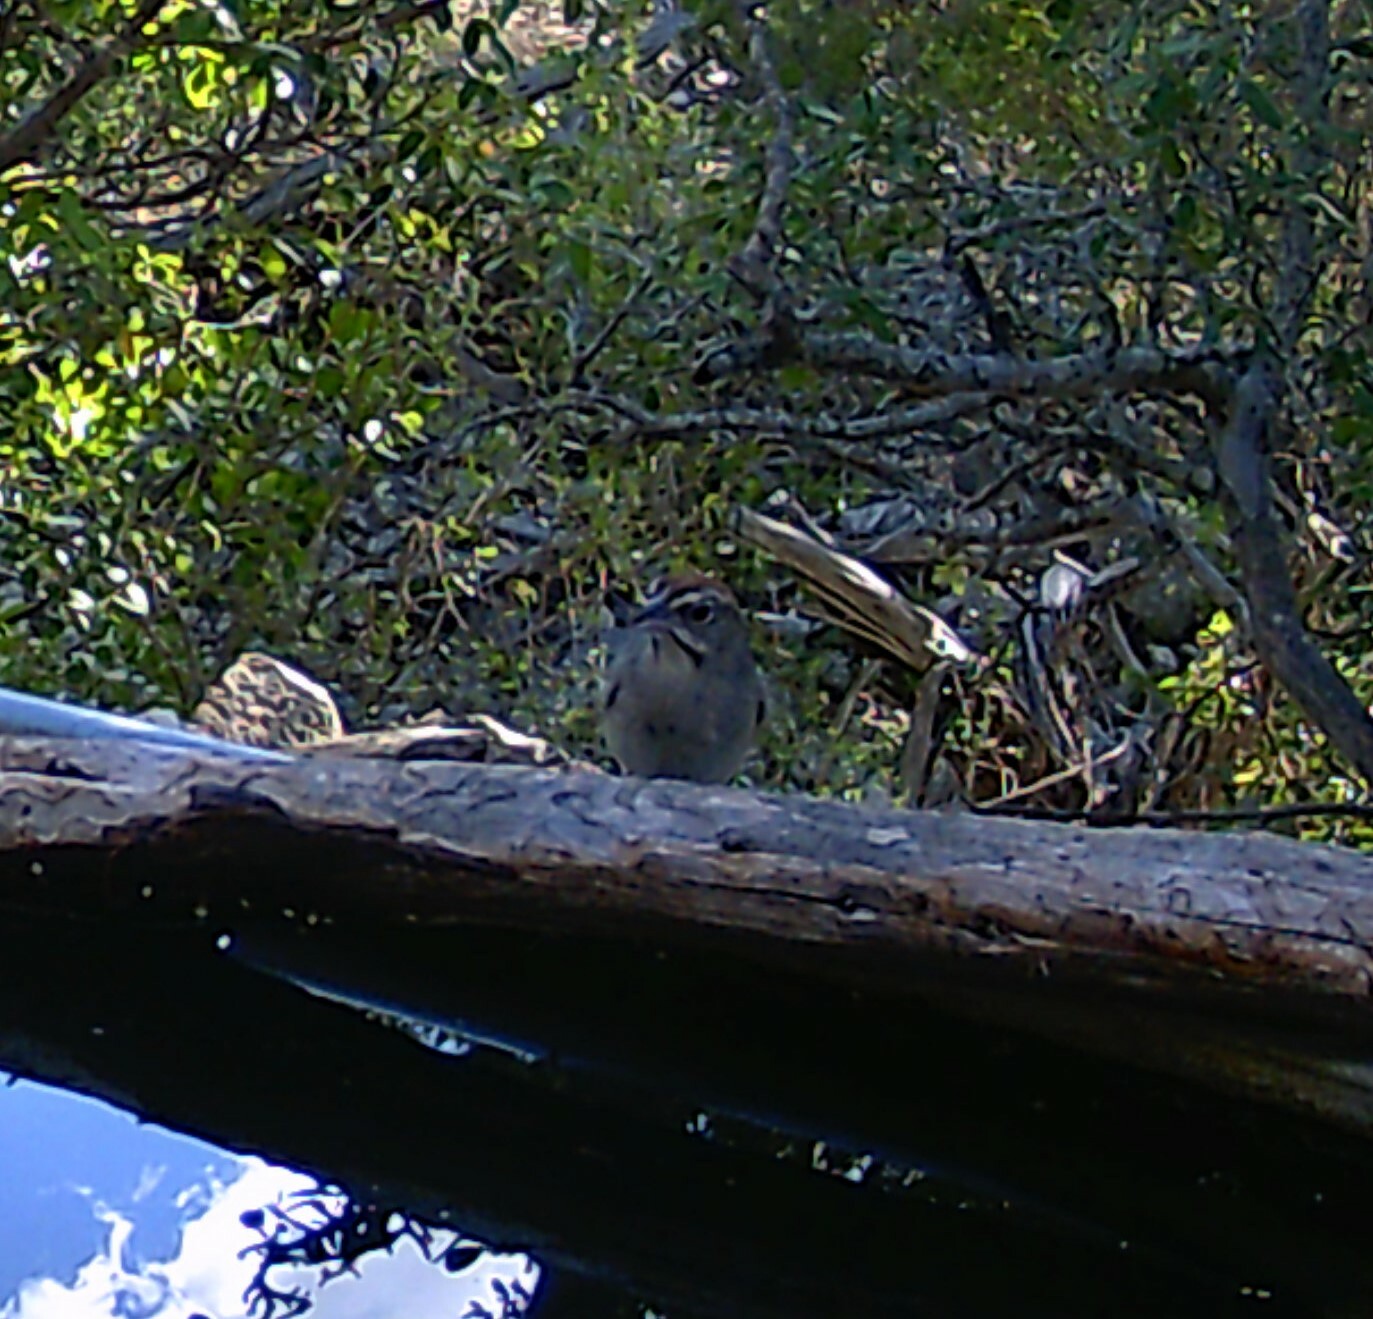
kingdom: Animalia
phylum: Chordata
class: Aves
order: Passeriformes
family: Passerellidae
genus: Aimophila
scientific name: Aimophila ruficeps
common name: Rufous-crowned sparrow
